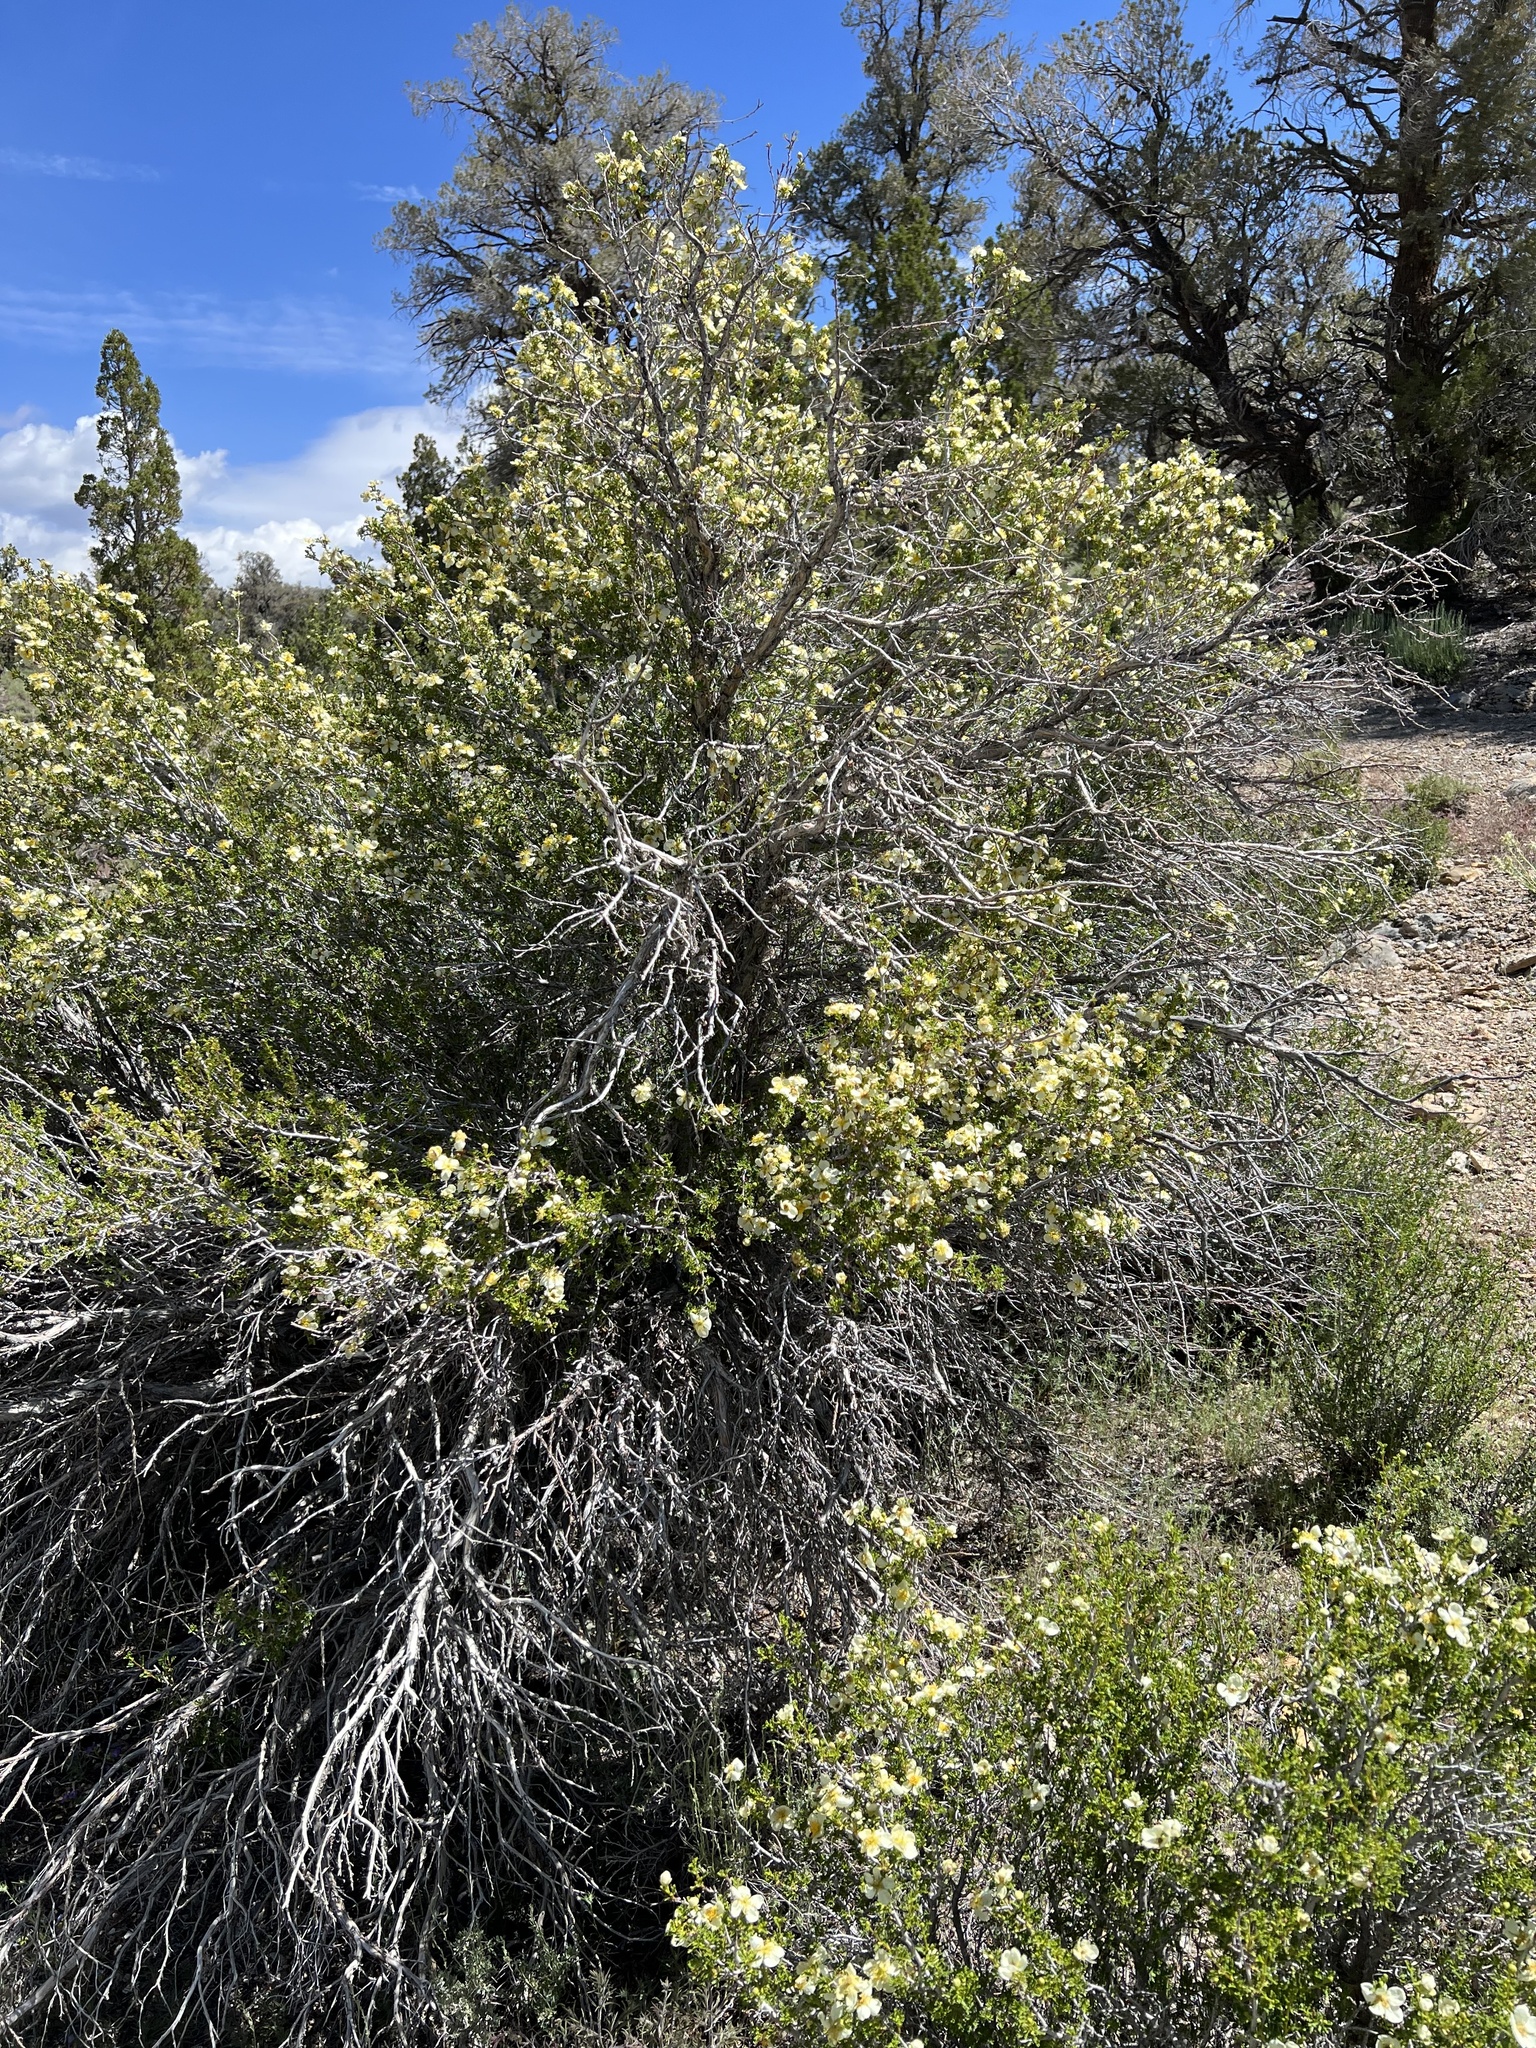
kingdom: Plantae
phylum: Tracheophyta
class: Magnoliopsida
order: Rosales
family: Rosaceae
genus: Purshia
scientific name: Purshia stansburiana
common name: Stansbury's cliffrose
